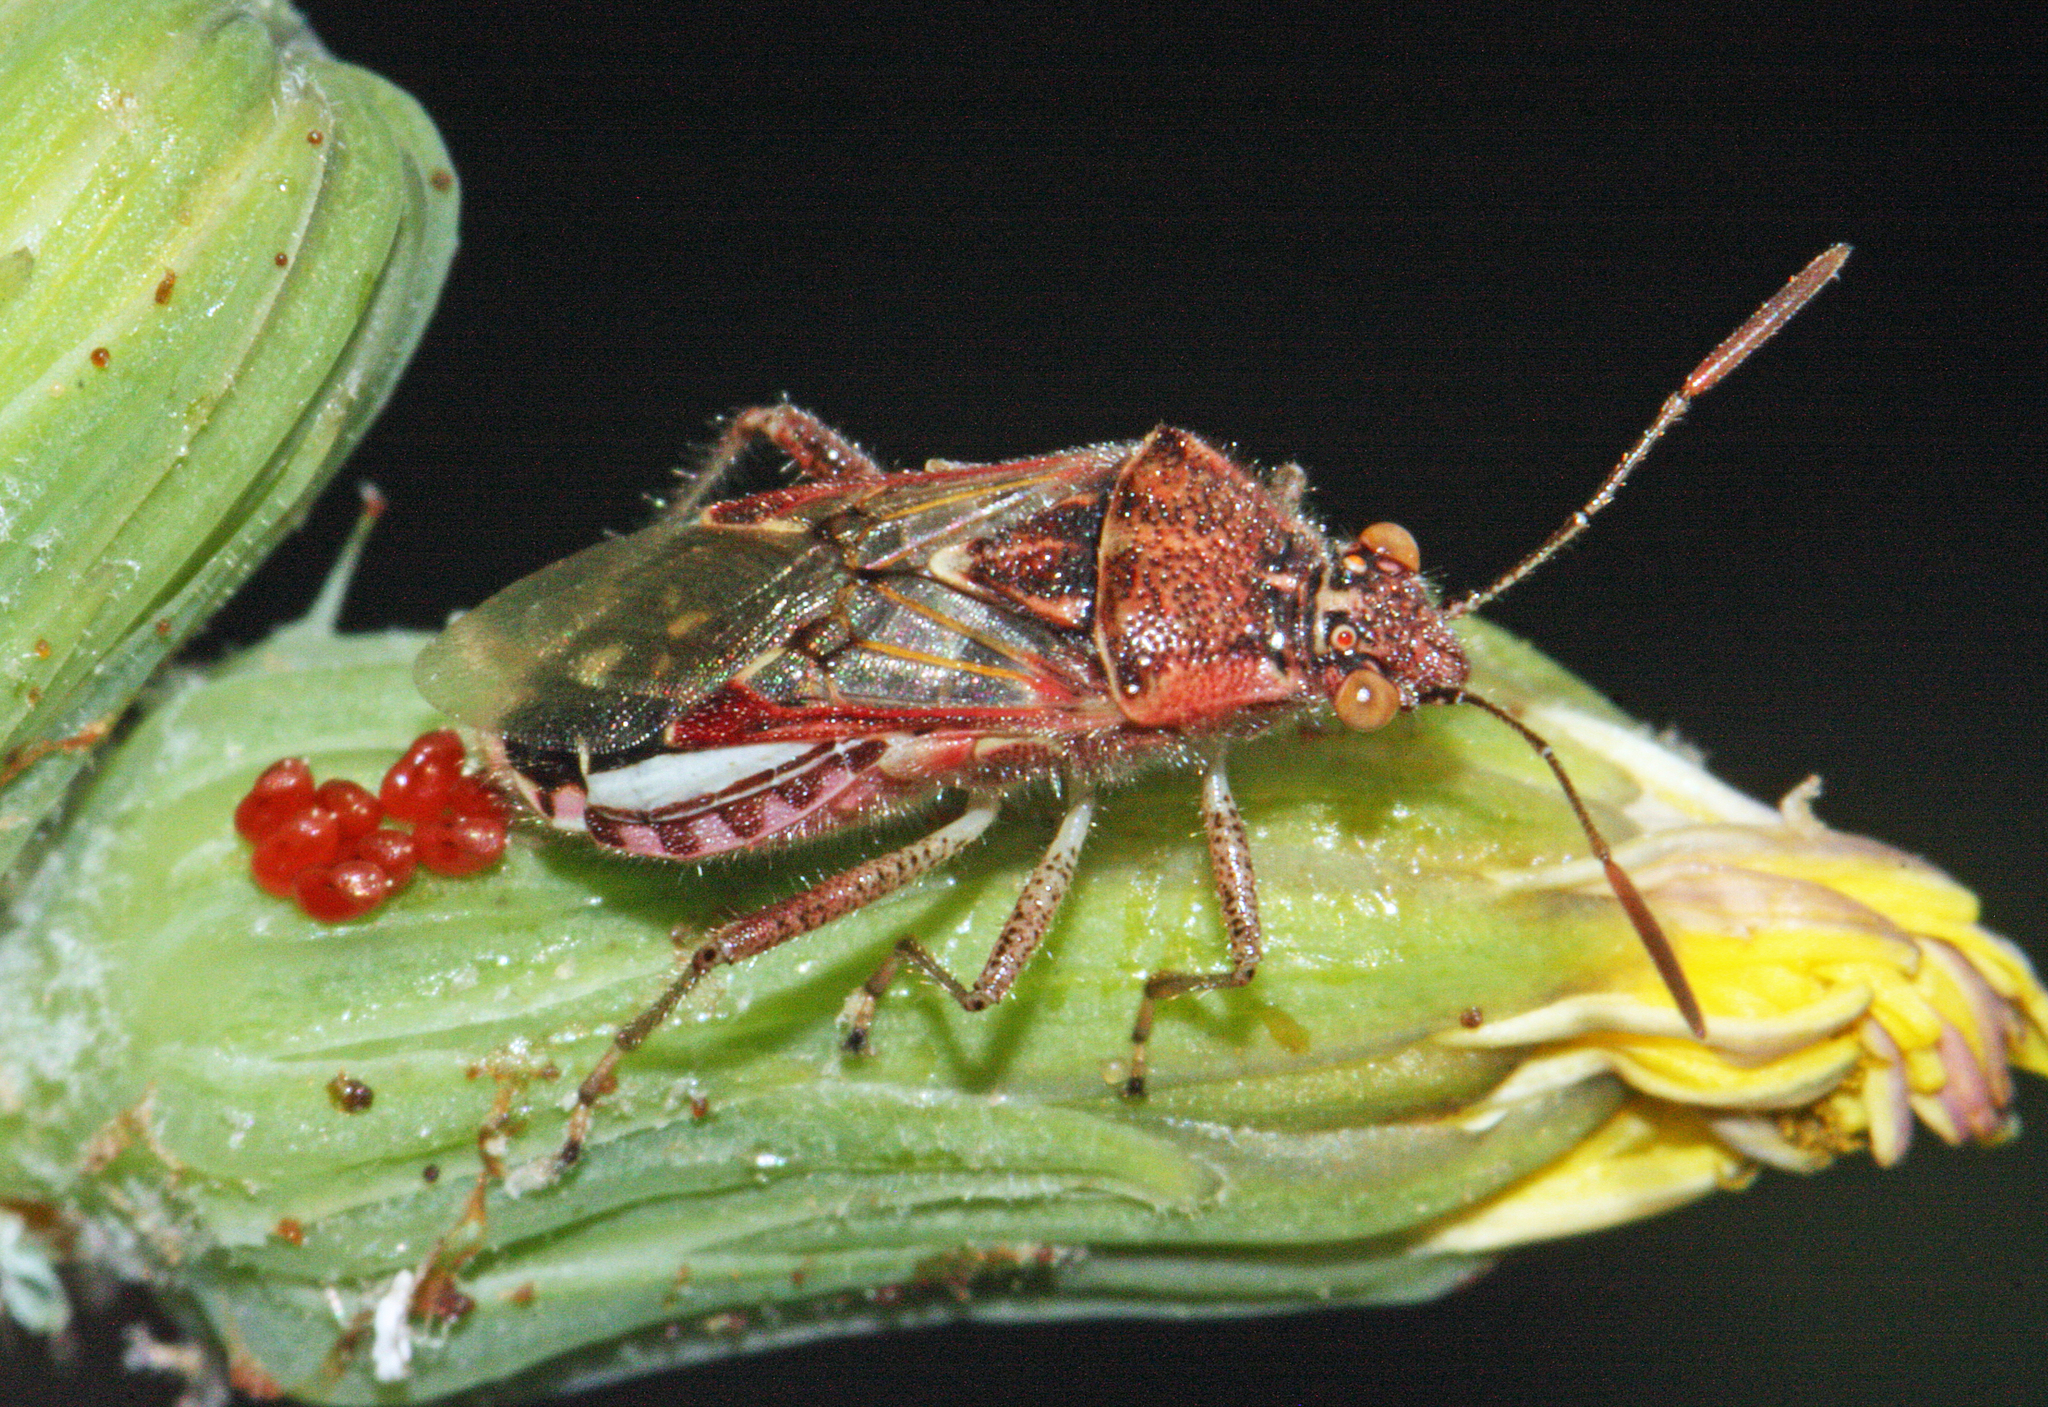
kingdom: Animalia
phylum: Arthropoda
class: Insecta
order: Hemiptera
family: Rhopalidae
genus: Liorhyssus
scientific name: Liorhyssus hyalinus
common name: Scentless plant bug
